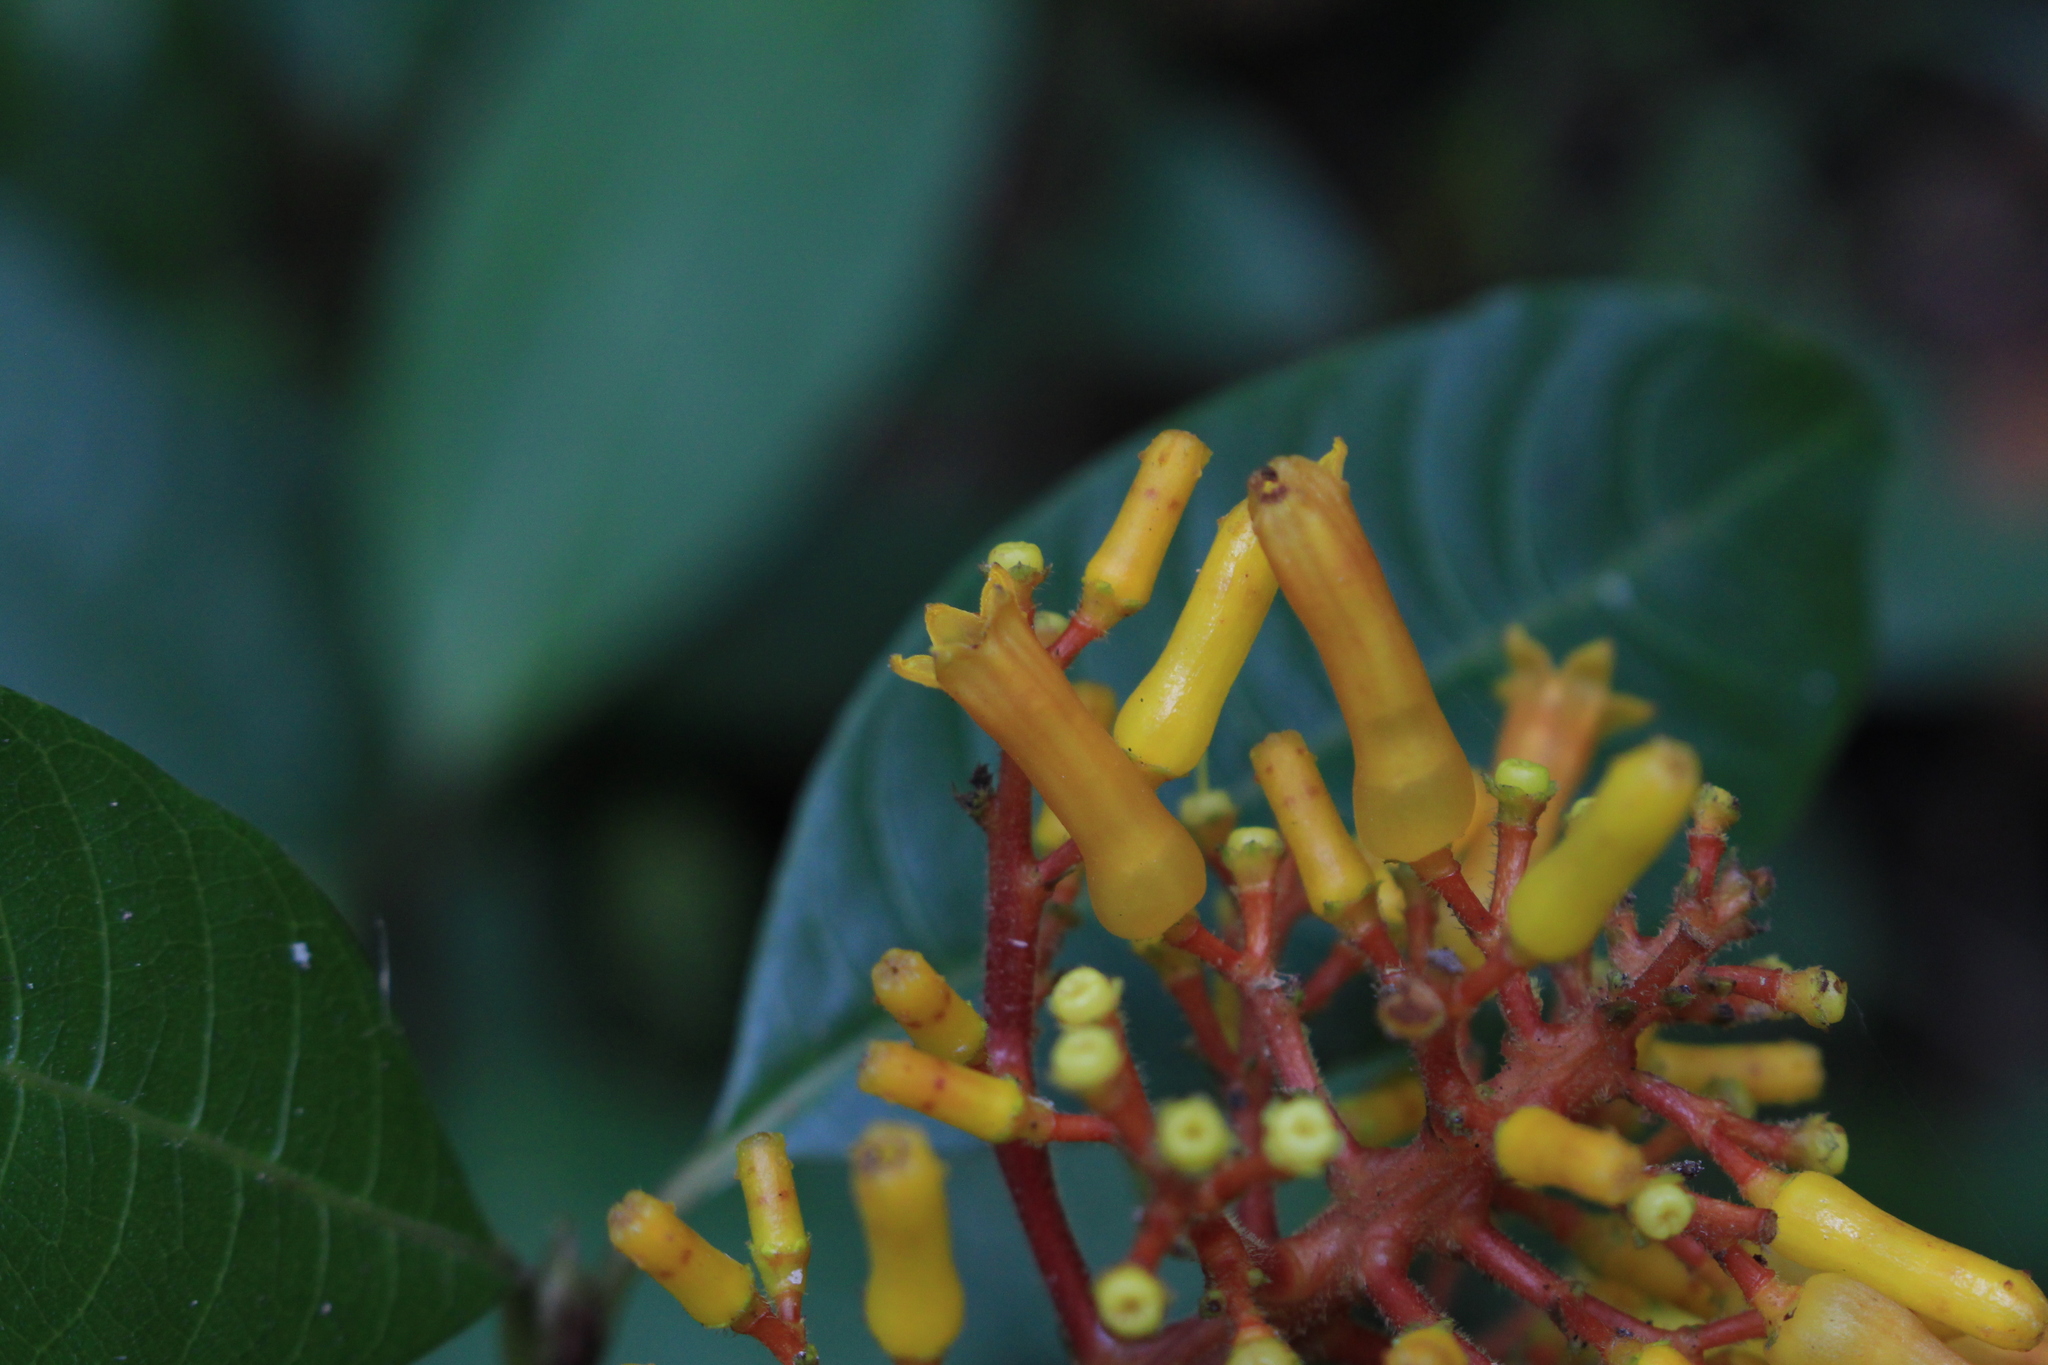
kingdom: Plantae
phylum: Tracheophyta
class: Magnoliopsida
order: Gentianales
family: Rubiaceae
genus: Palicourea
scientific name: Palicourea padifolia
